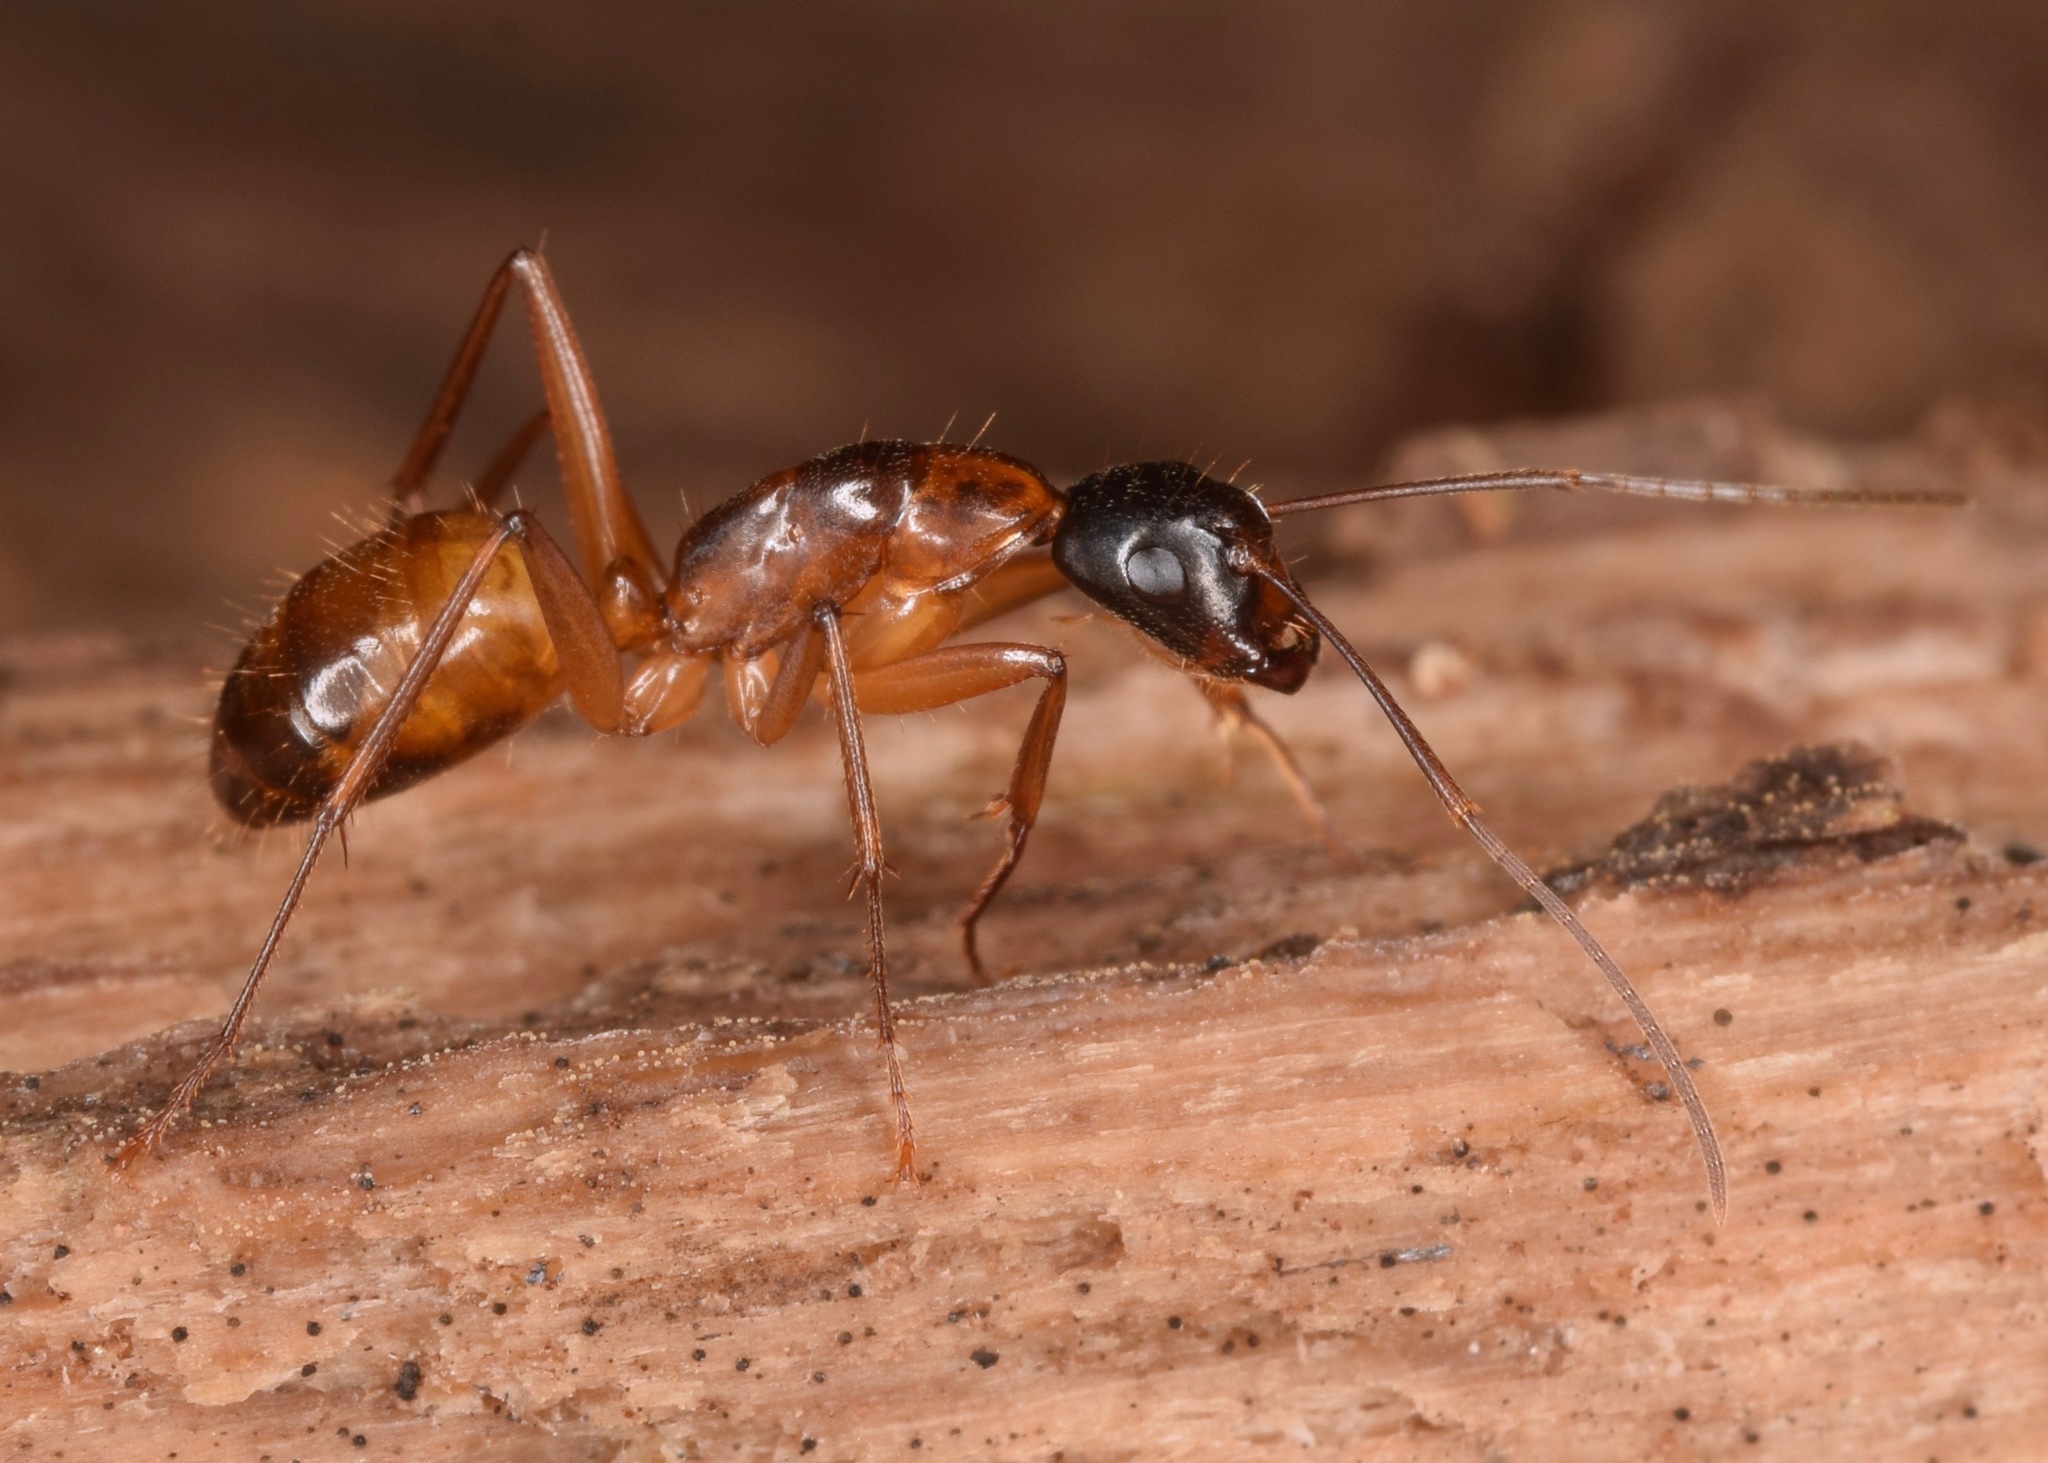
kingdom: Animalia
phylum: Arthropoda
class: Insecta
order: Hymenoptera
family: Formicidae
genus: Camponotus
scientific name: Camponotus americanus
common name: American carpenter ant
